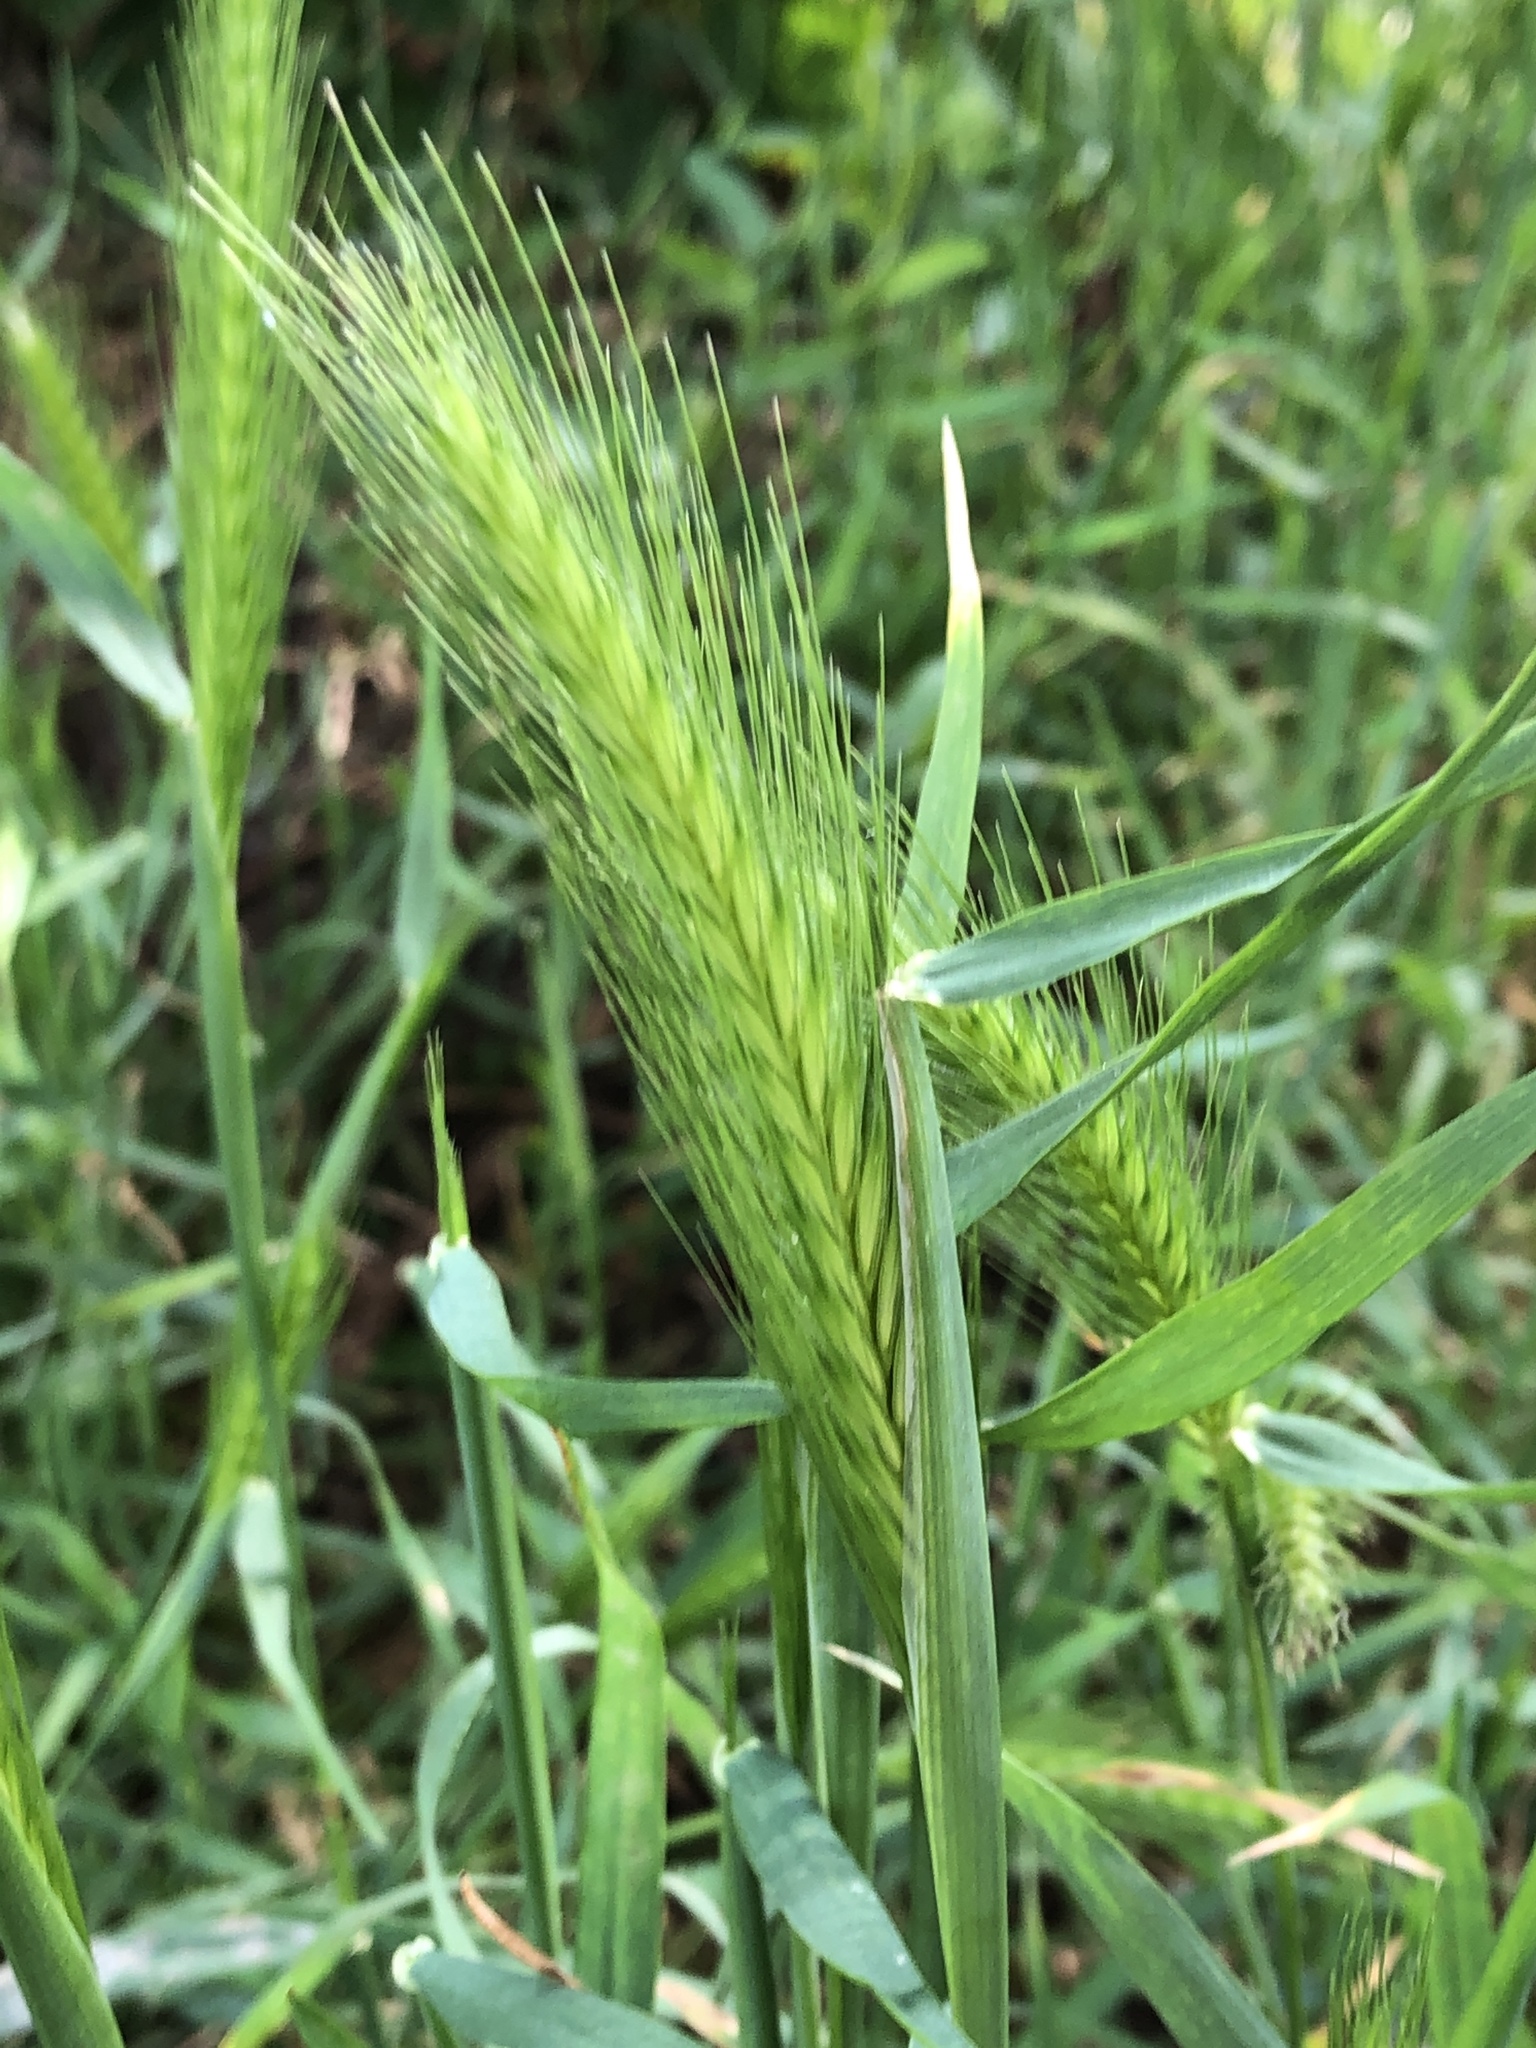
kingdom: Plantae
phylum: Tracheophyta
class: Liliopsida
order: Poales
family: Poaceae
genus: Hordeum
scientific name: Hordeum murinum
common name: Wall barley
